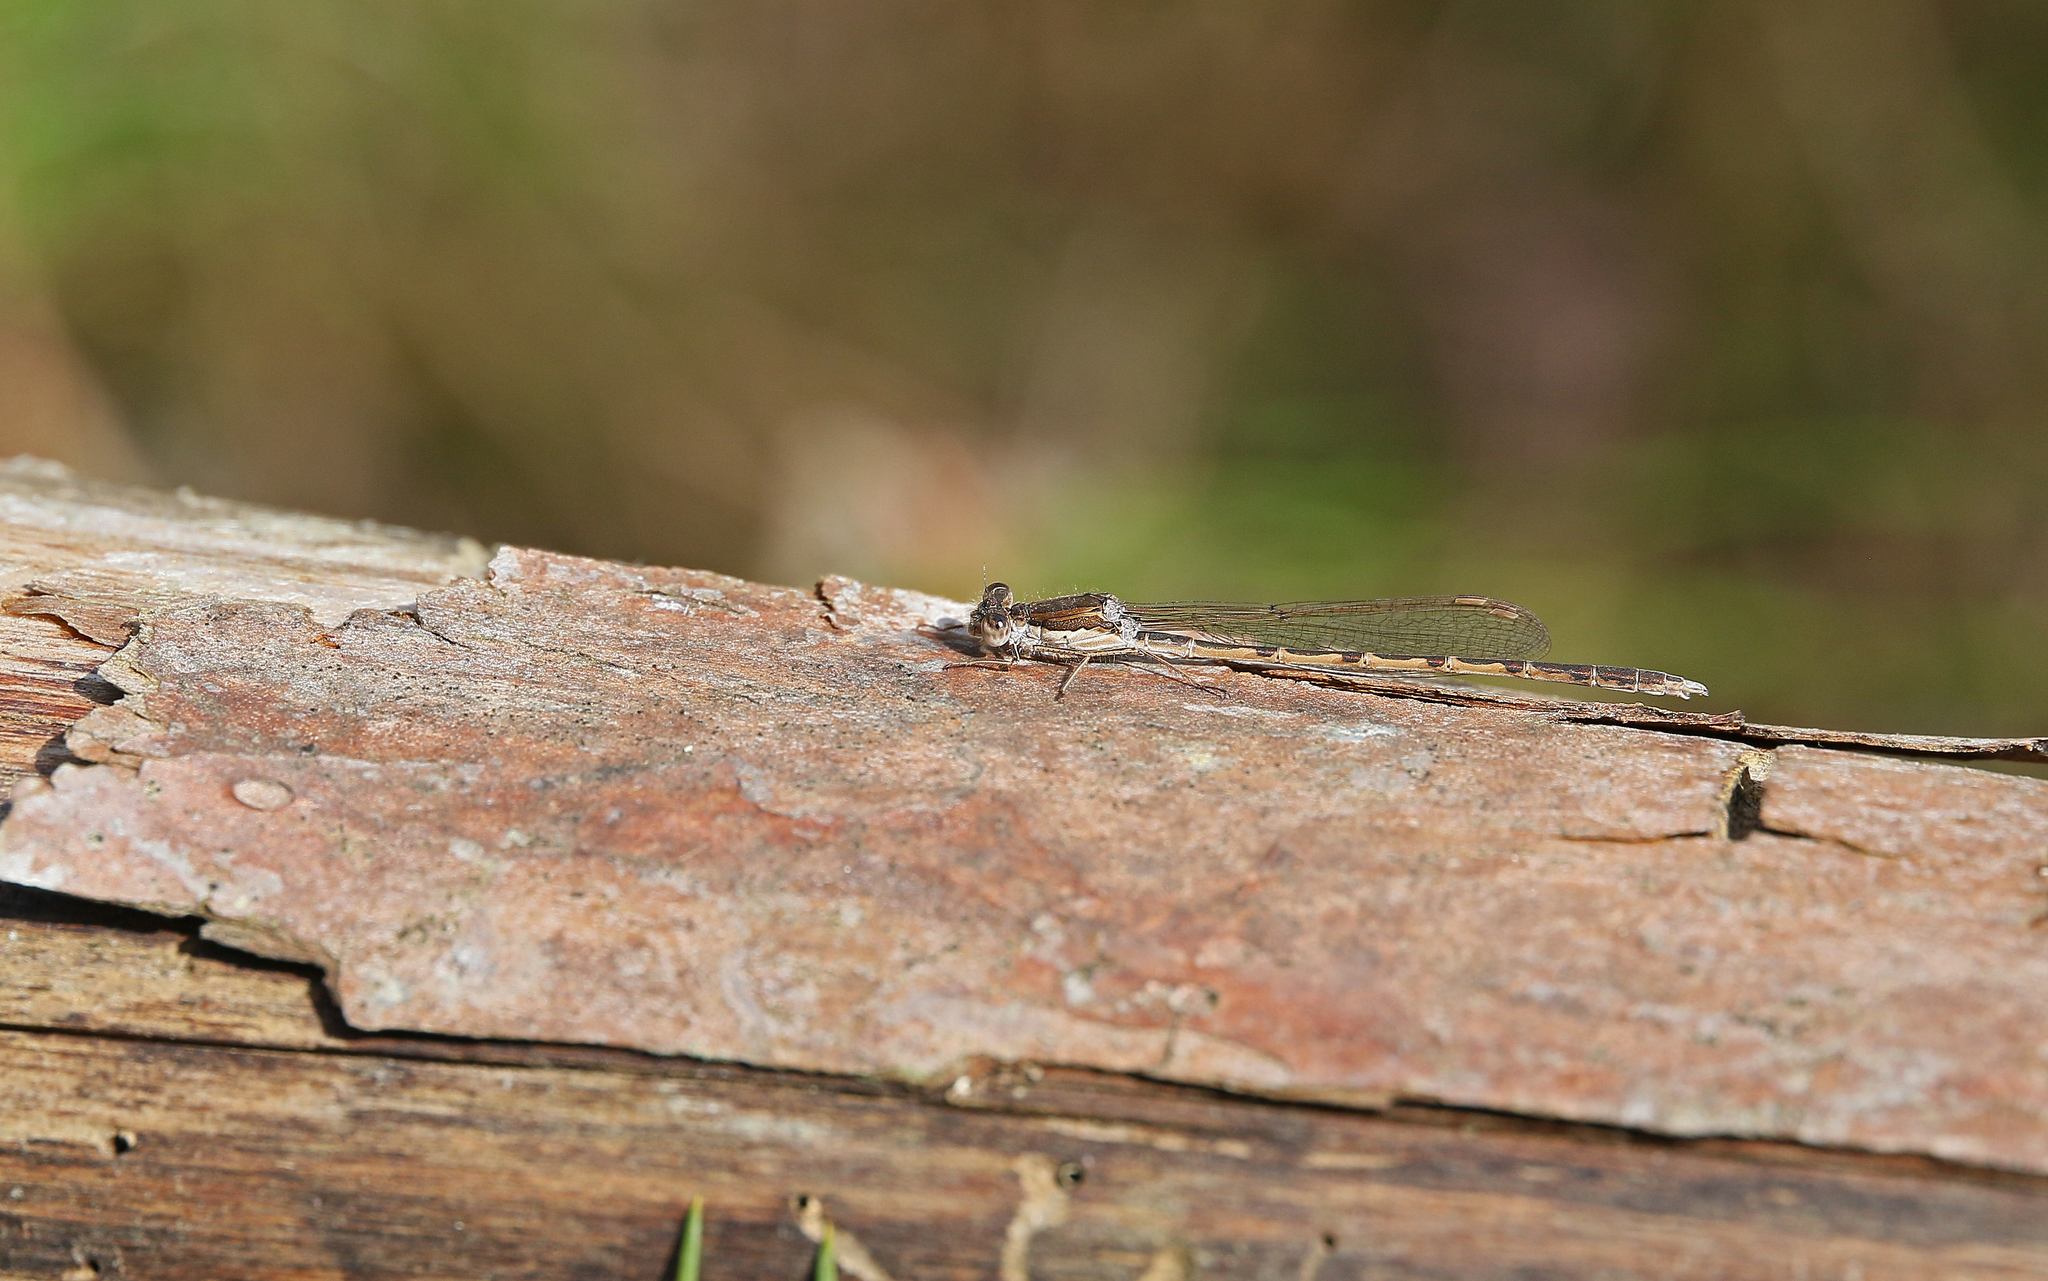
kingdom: Animalia
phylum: Arthropoda
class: Insecta
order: Odonata
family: Lestidae
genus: Sympecma
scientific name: Sympecma fusca
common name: Common winter damsel
